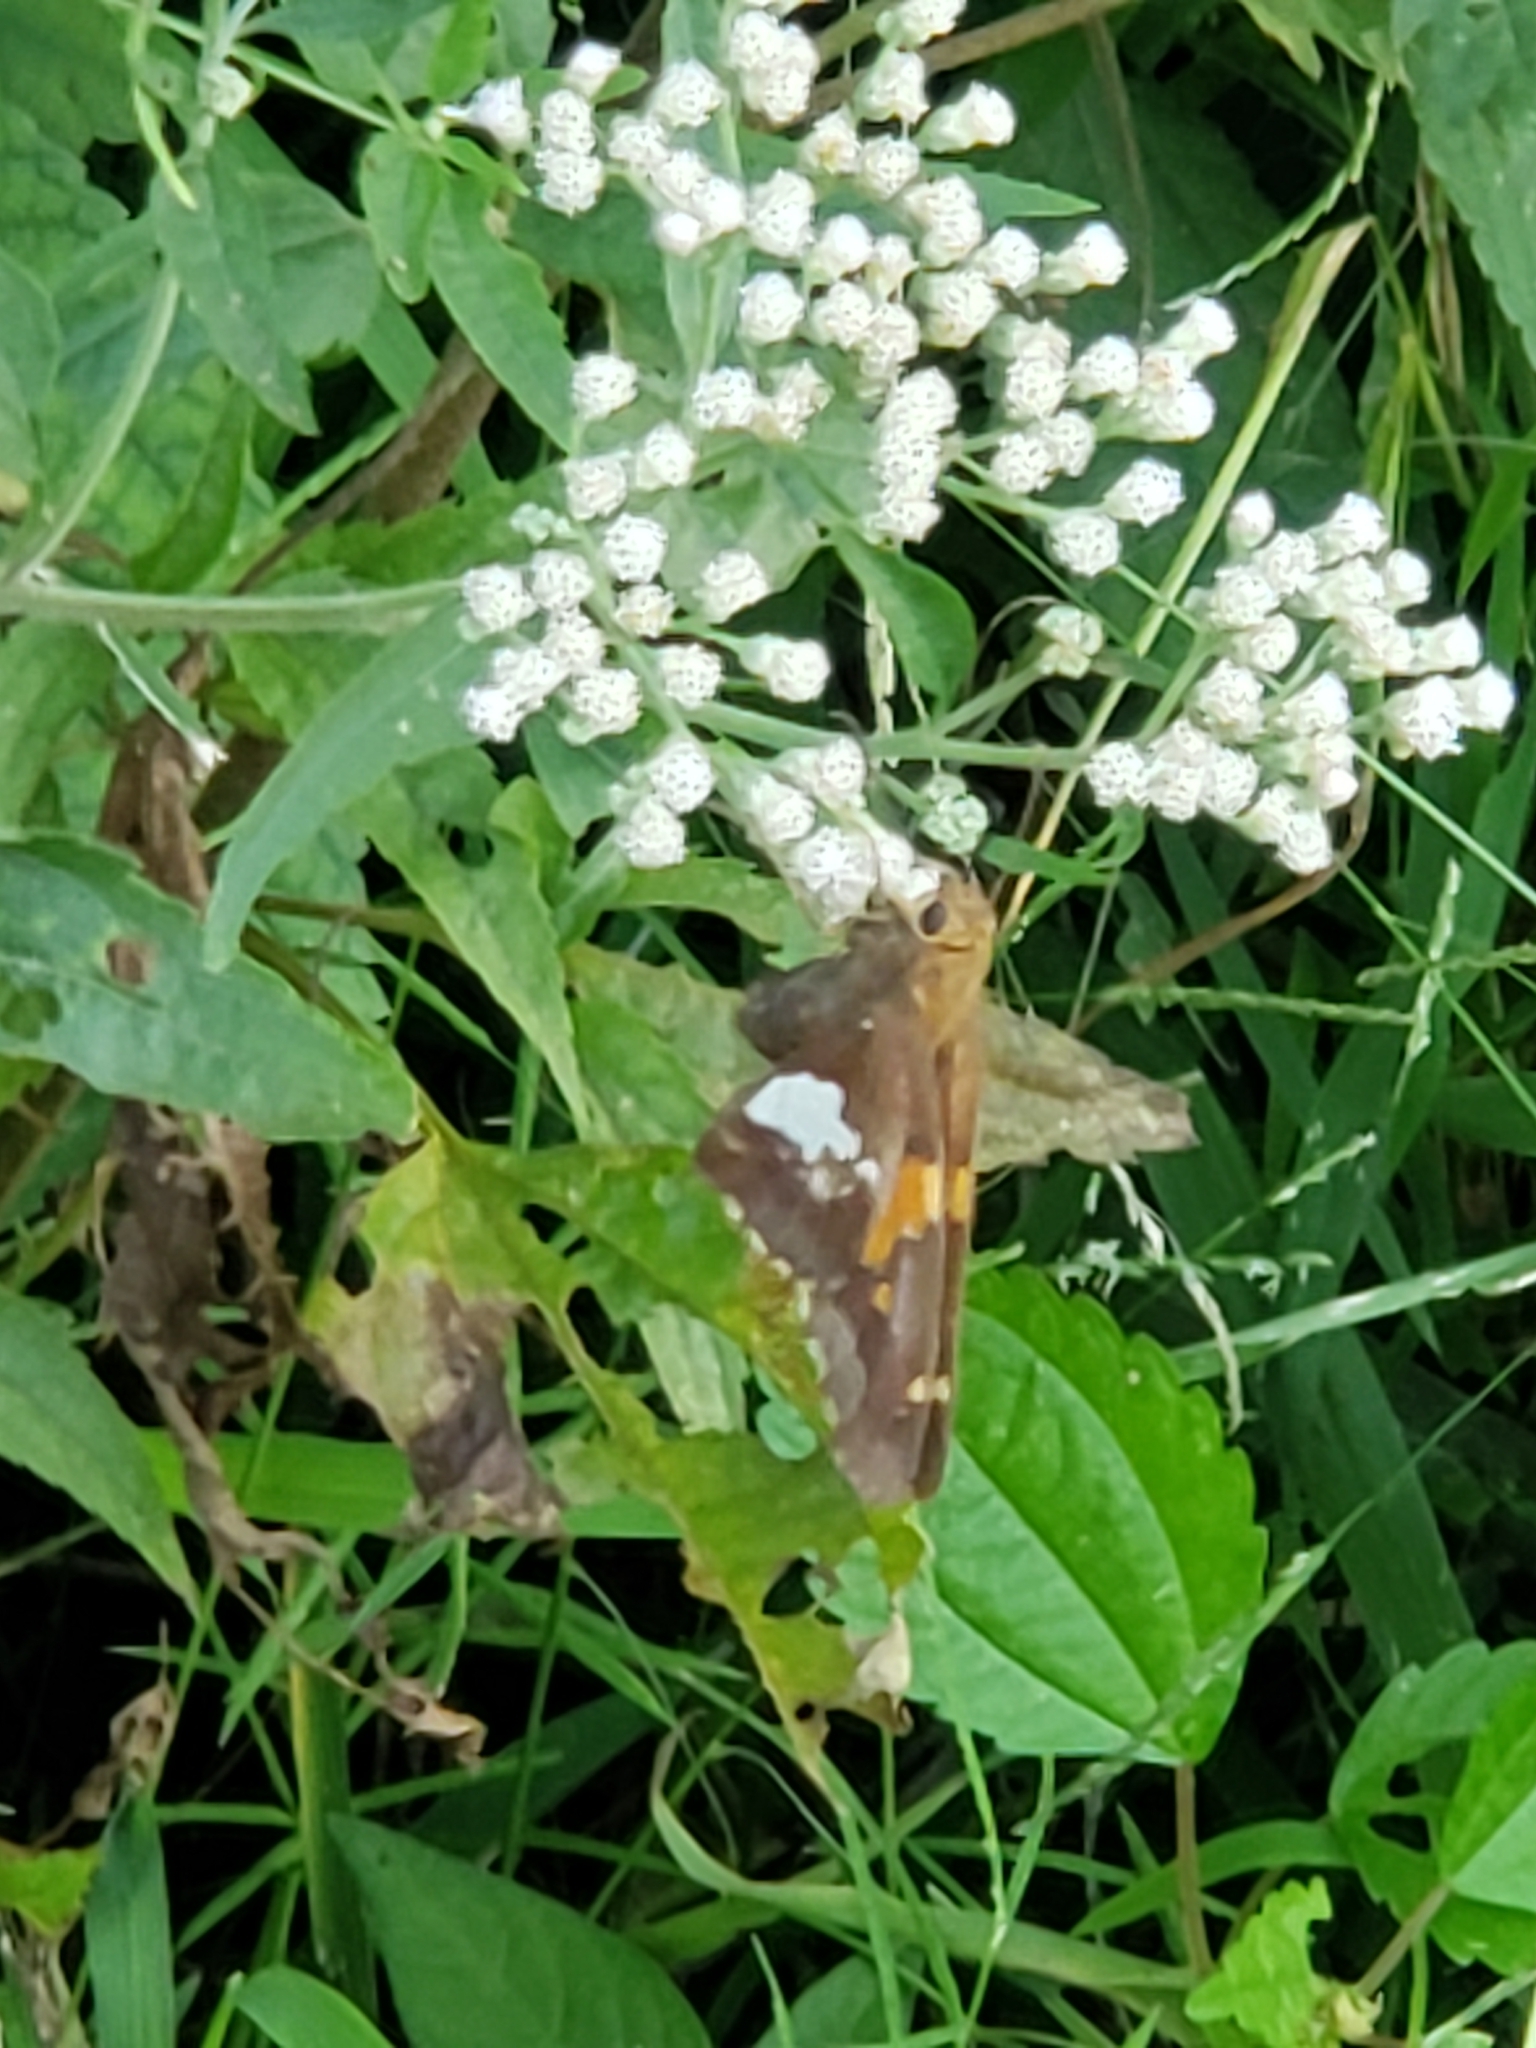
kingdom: Animalia
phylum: Arthropoda
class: Insecta
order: Lepidoptera
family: Hesperiidae
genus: Epargyreus
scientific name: Epargyreus clarus
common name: Silver-spotted skipper
